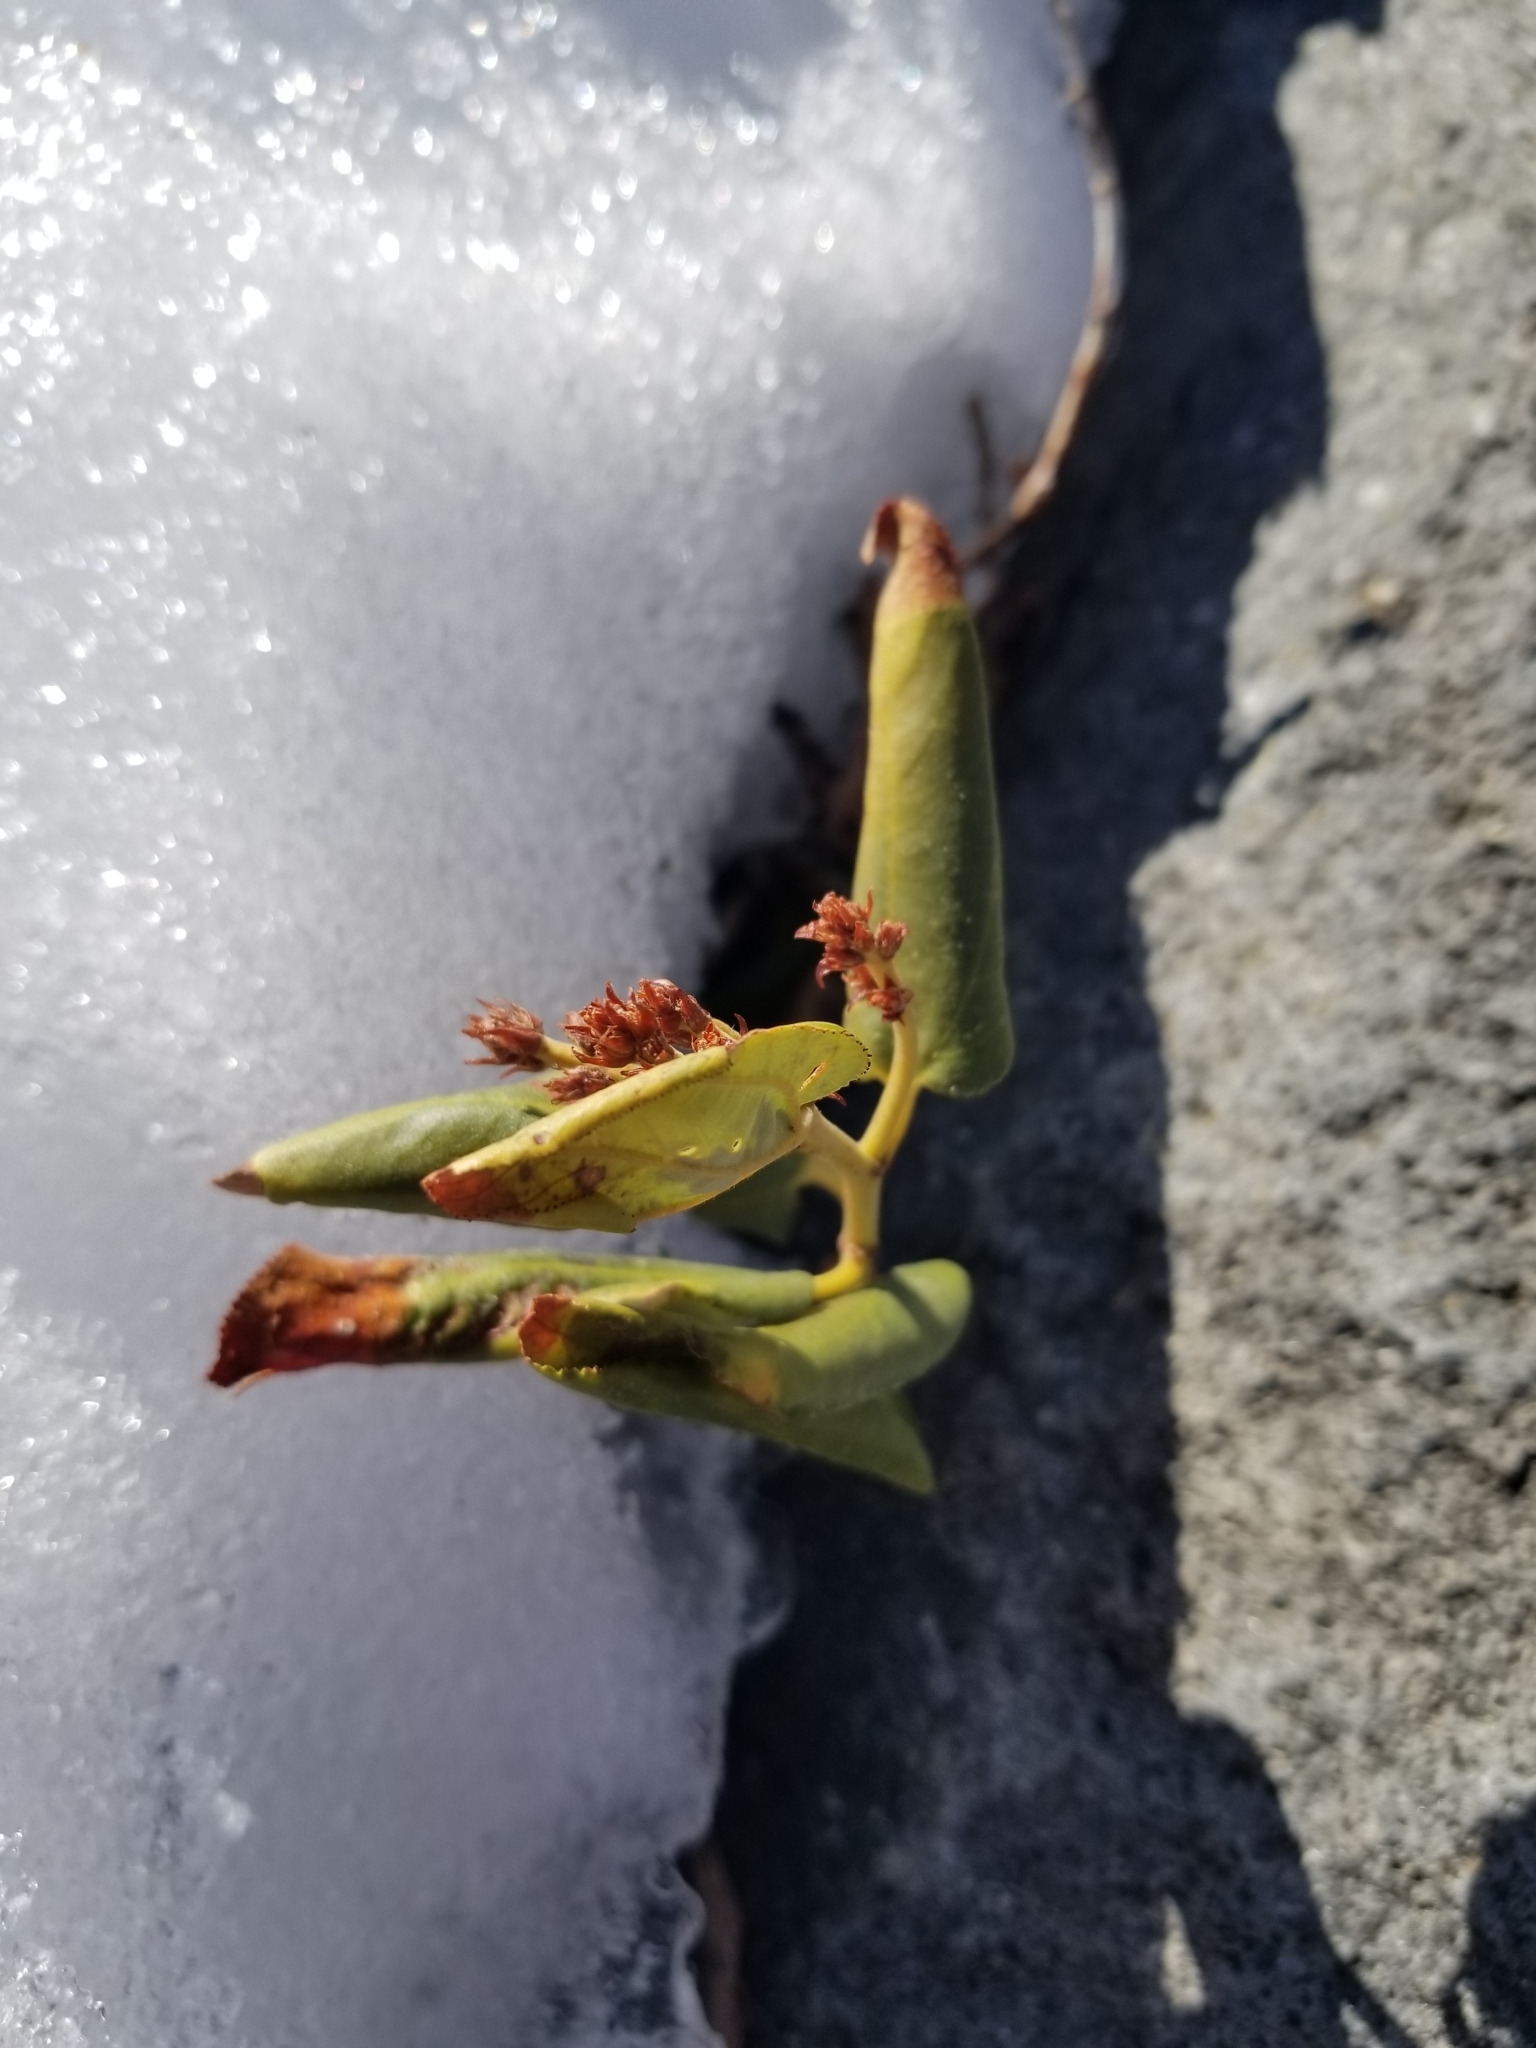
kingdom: Plantae
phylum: Tracheophyta
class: Magnoliopsida
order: Rosales
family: Rhamnaceae
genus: Ceanothus
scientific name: Ceanothus velutinus
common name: Snowbrush
